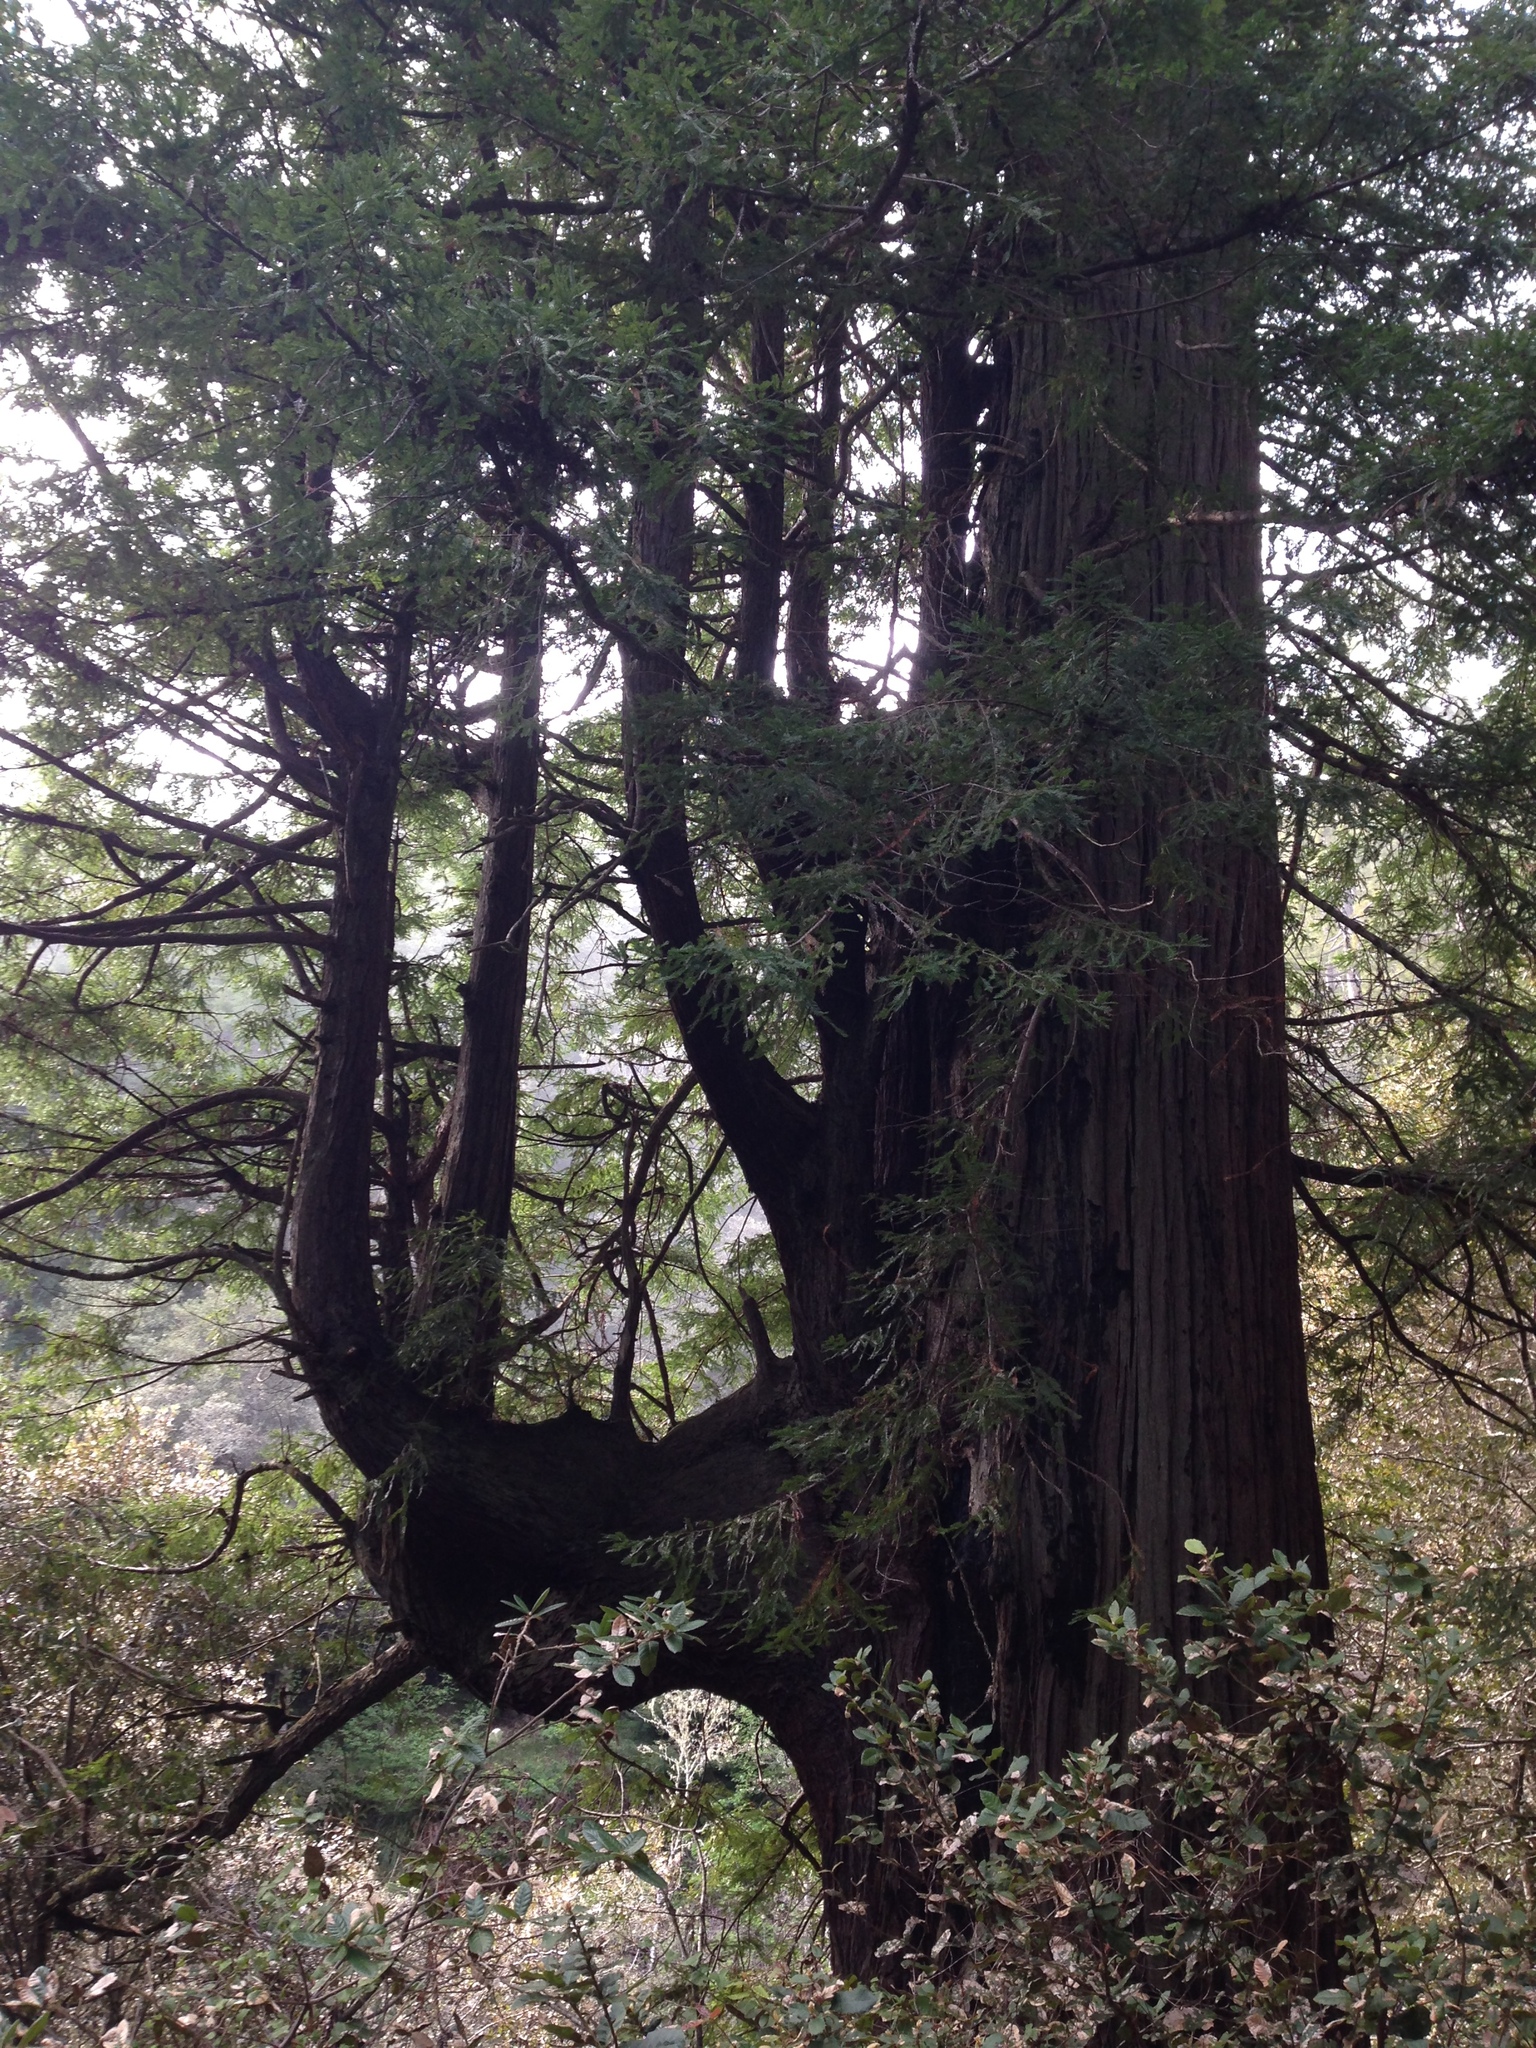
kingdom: Plantae
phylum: Tracheophyta
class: Pinopsida
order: Pinales
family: Cupressaceae
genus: Sequoia
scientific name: Sequoia sempervirens
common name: Coast redwood
